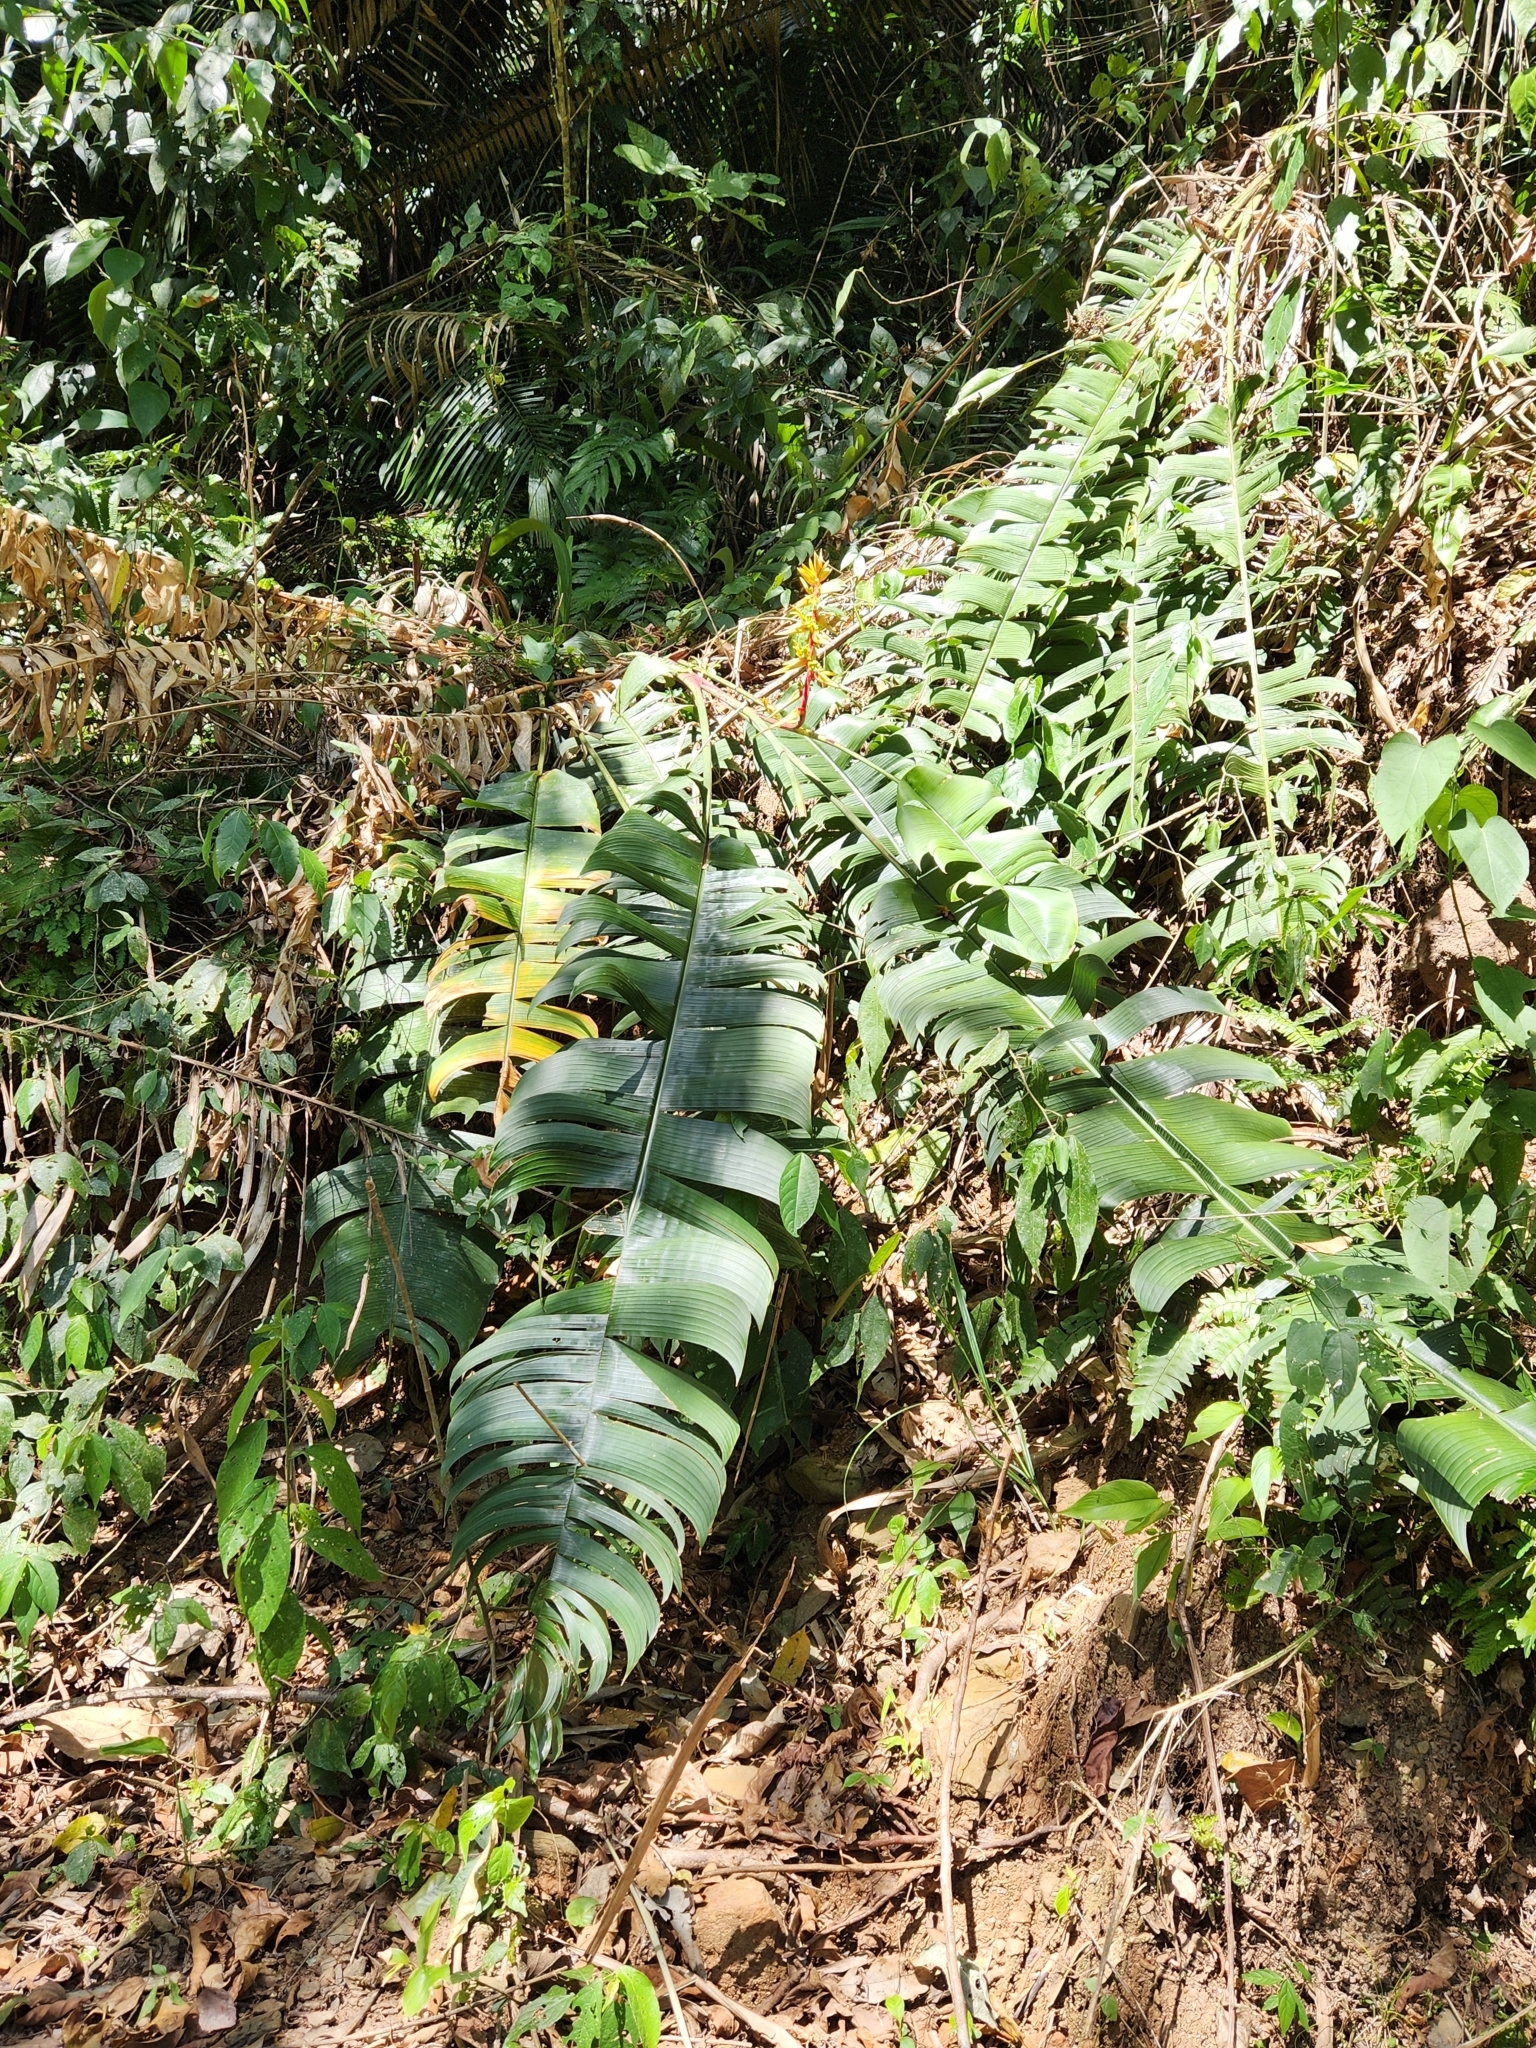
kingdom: Plantae
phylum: Tracheophyta
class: Liliopsida
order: Zingiberales
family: Heliconiaceae
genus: Heliconia
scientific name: Heliconia spissa
